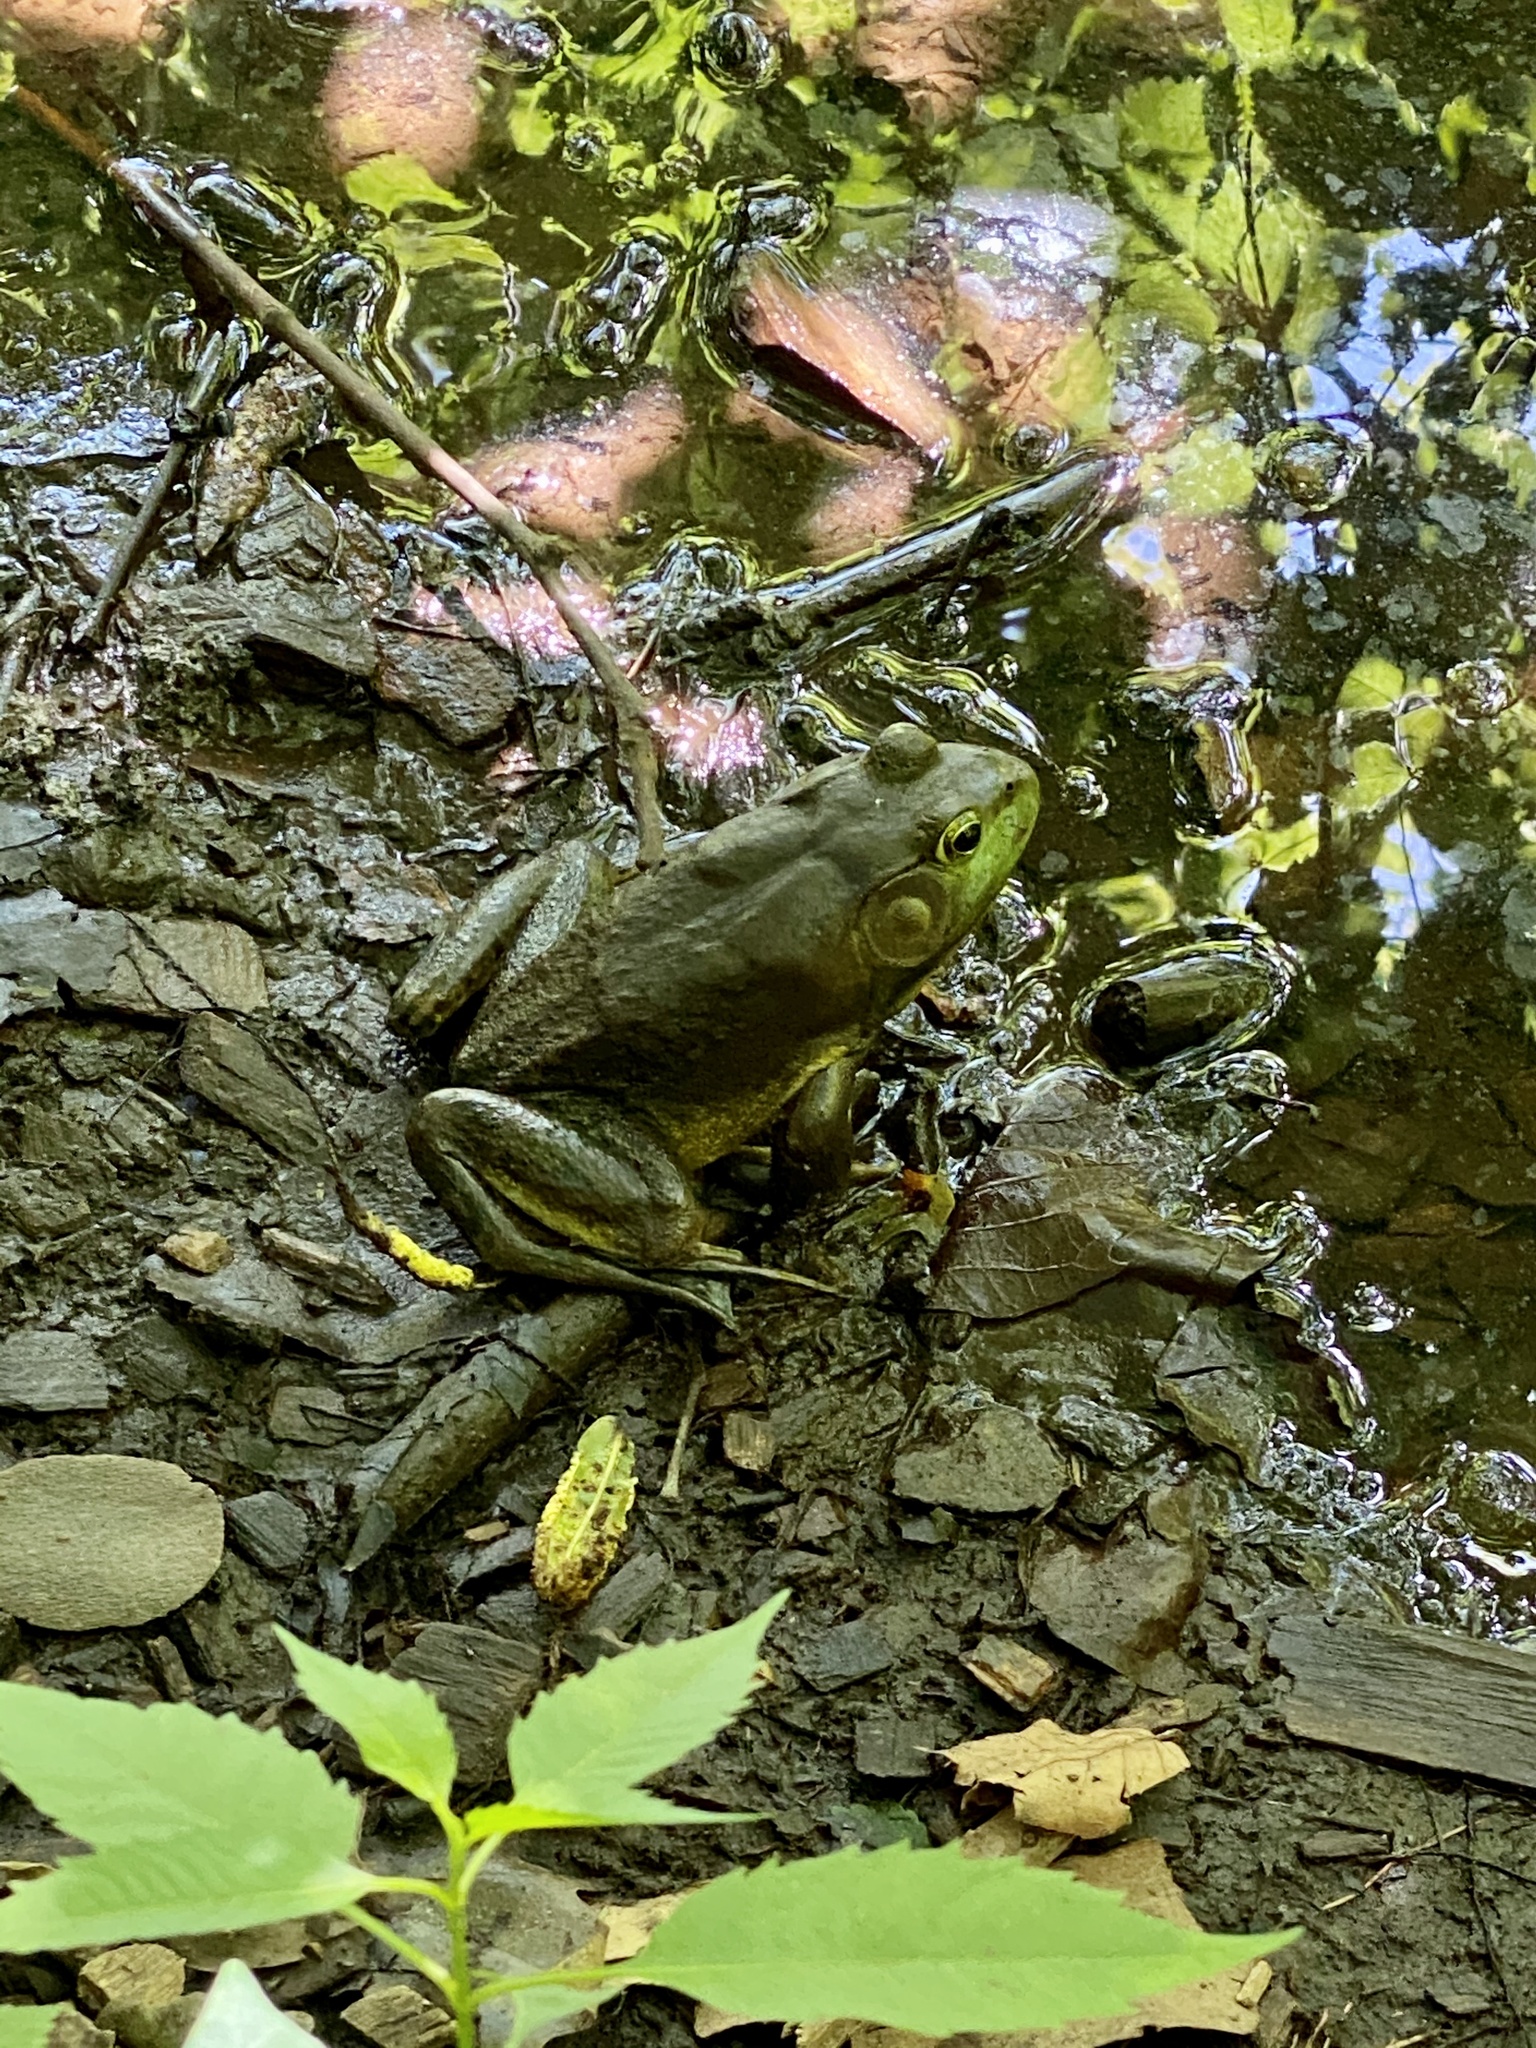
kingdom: Animalia
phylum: Chordata
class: Amphibia
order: Anura
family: Ranidae
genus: Lithobates
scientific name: Lithobates catesbeianus
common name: American bullfrog
